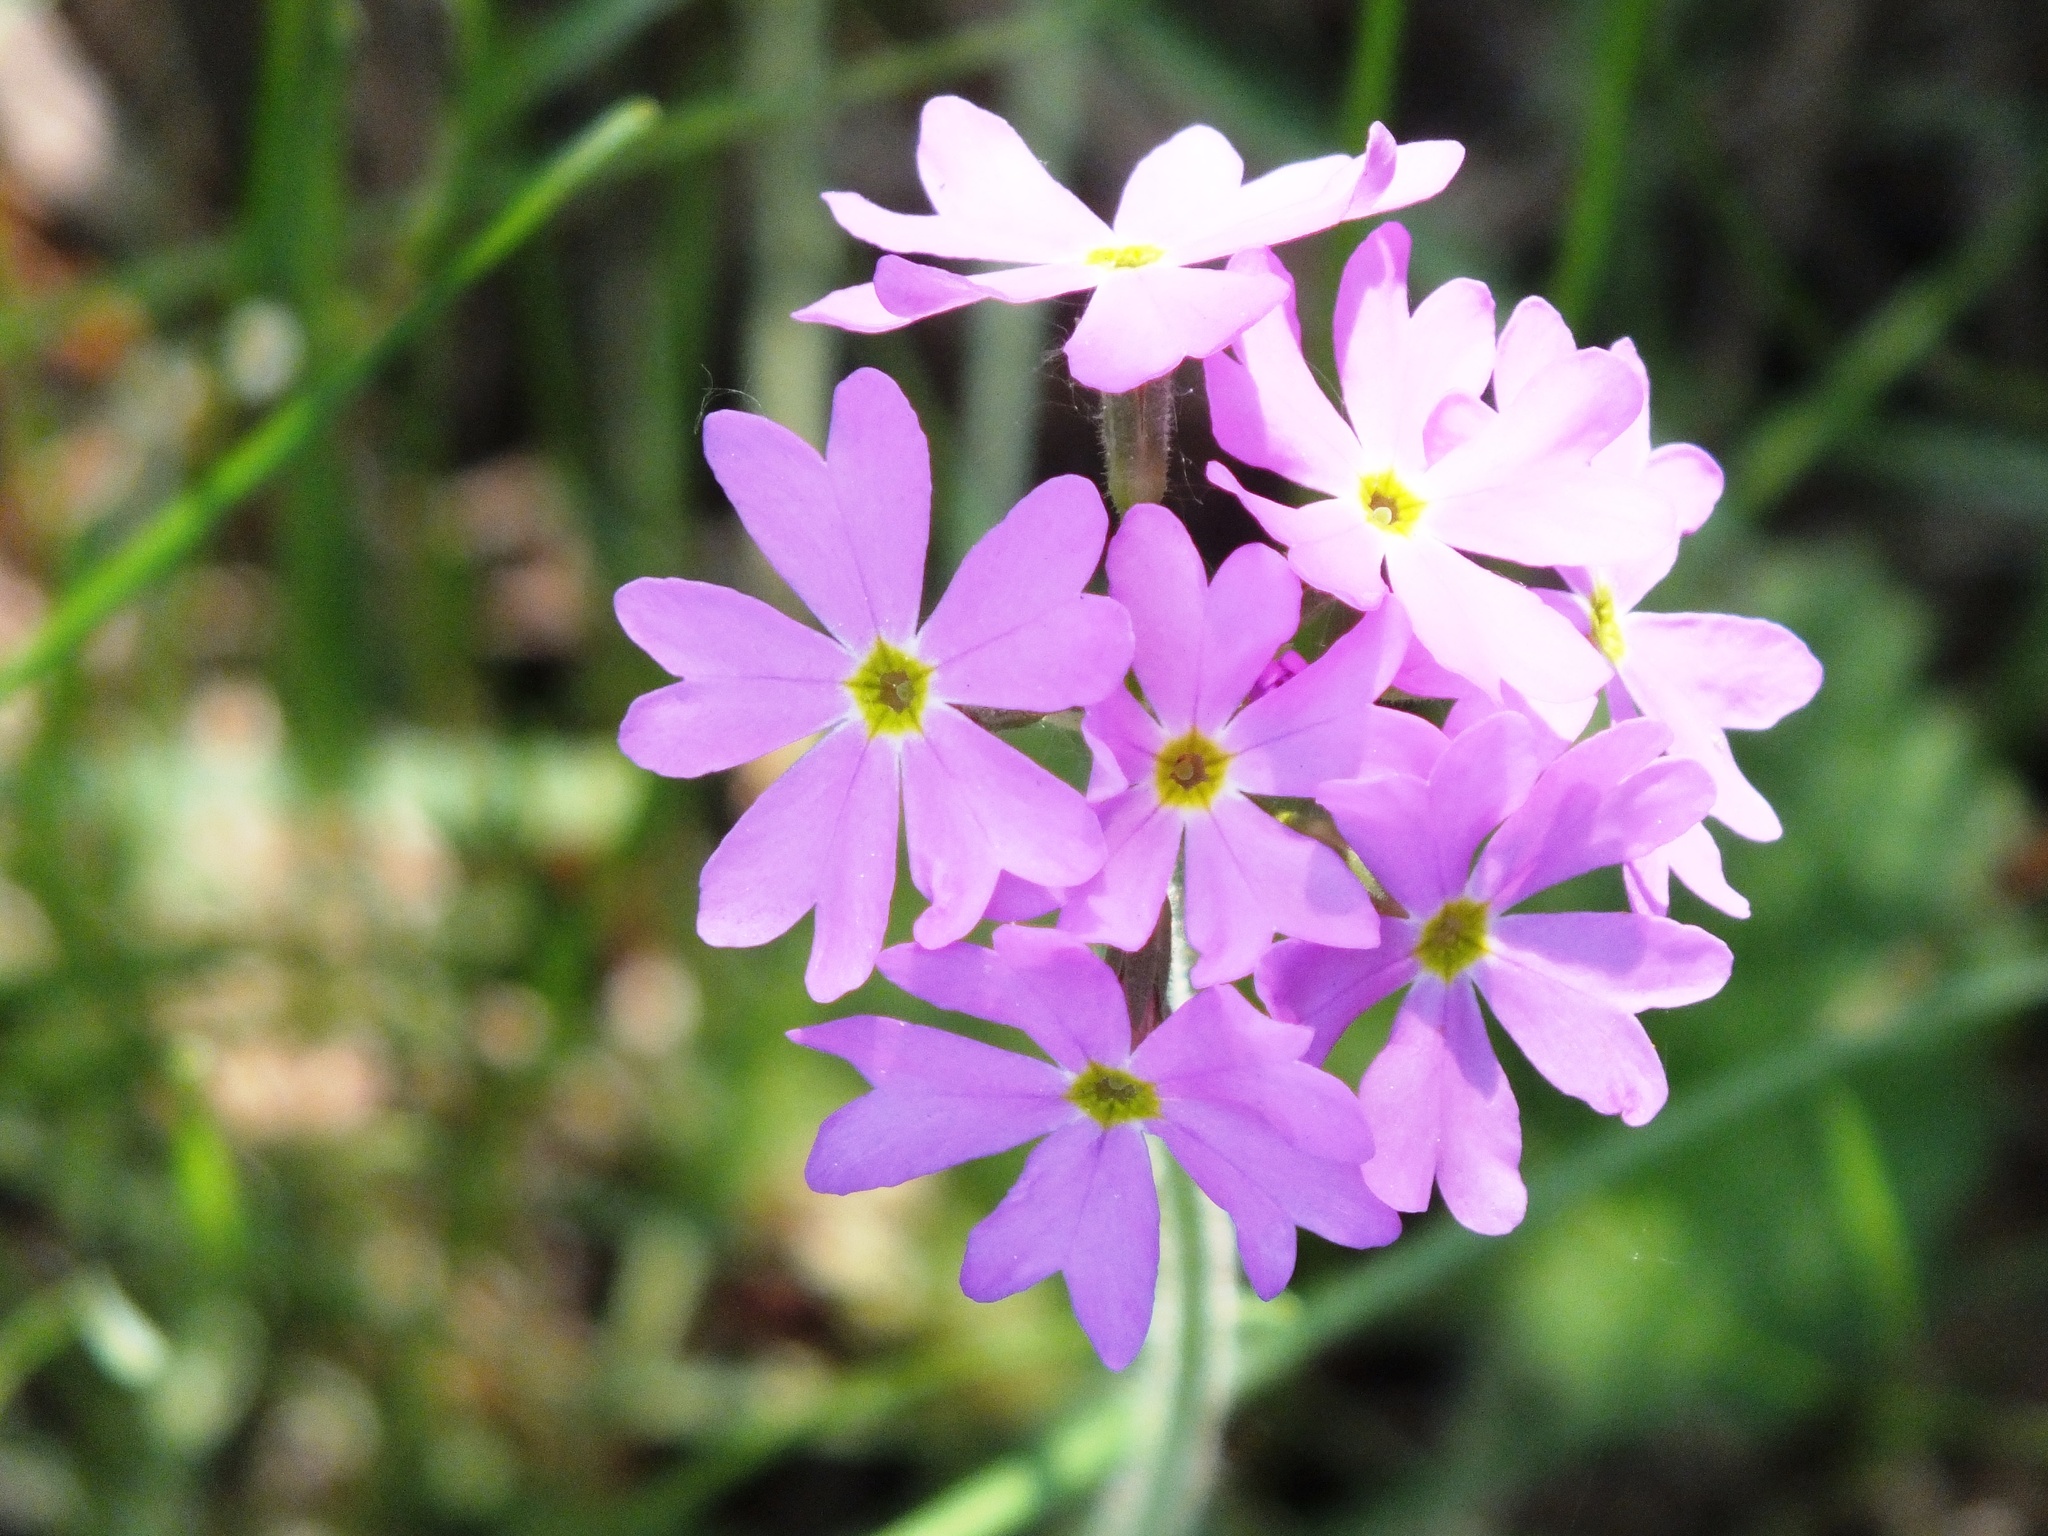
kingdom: Plantae
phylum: Tracheophyta
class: Magnoliopsida
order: Ericales
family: Primulaceae
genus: Primula
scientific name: Primula cortusoides
